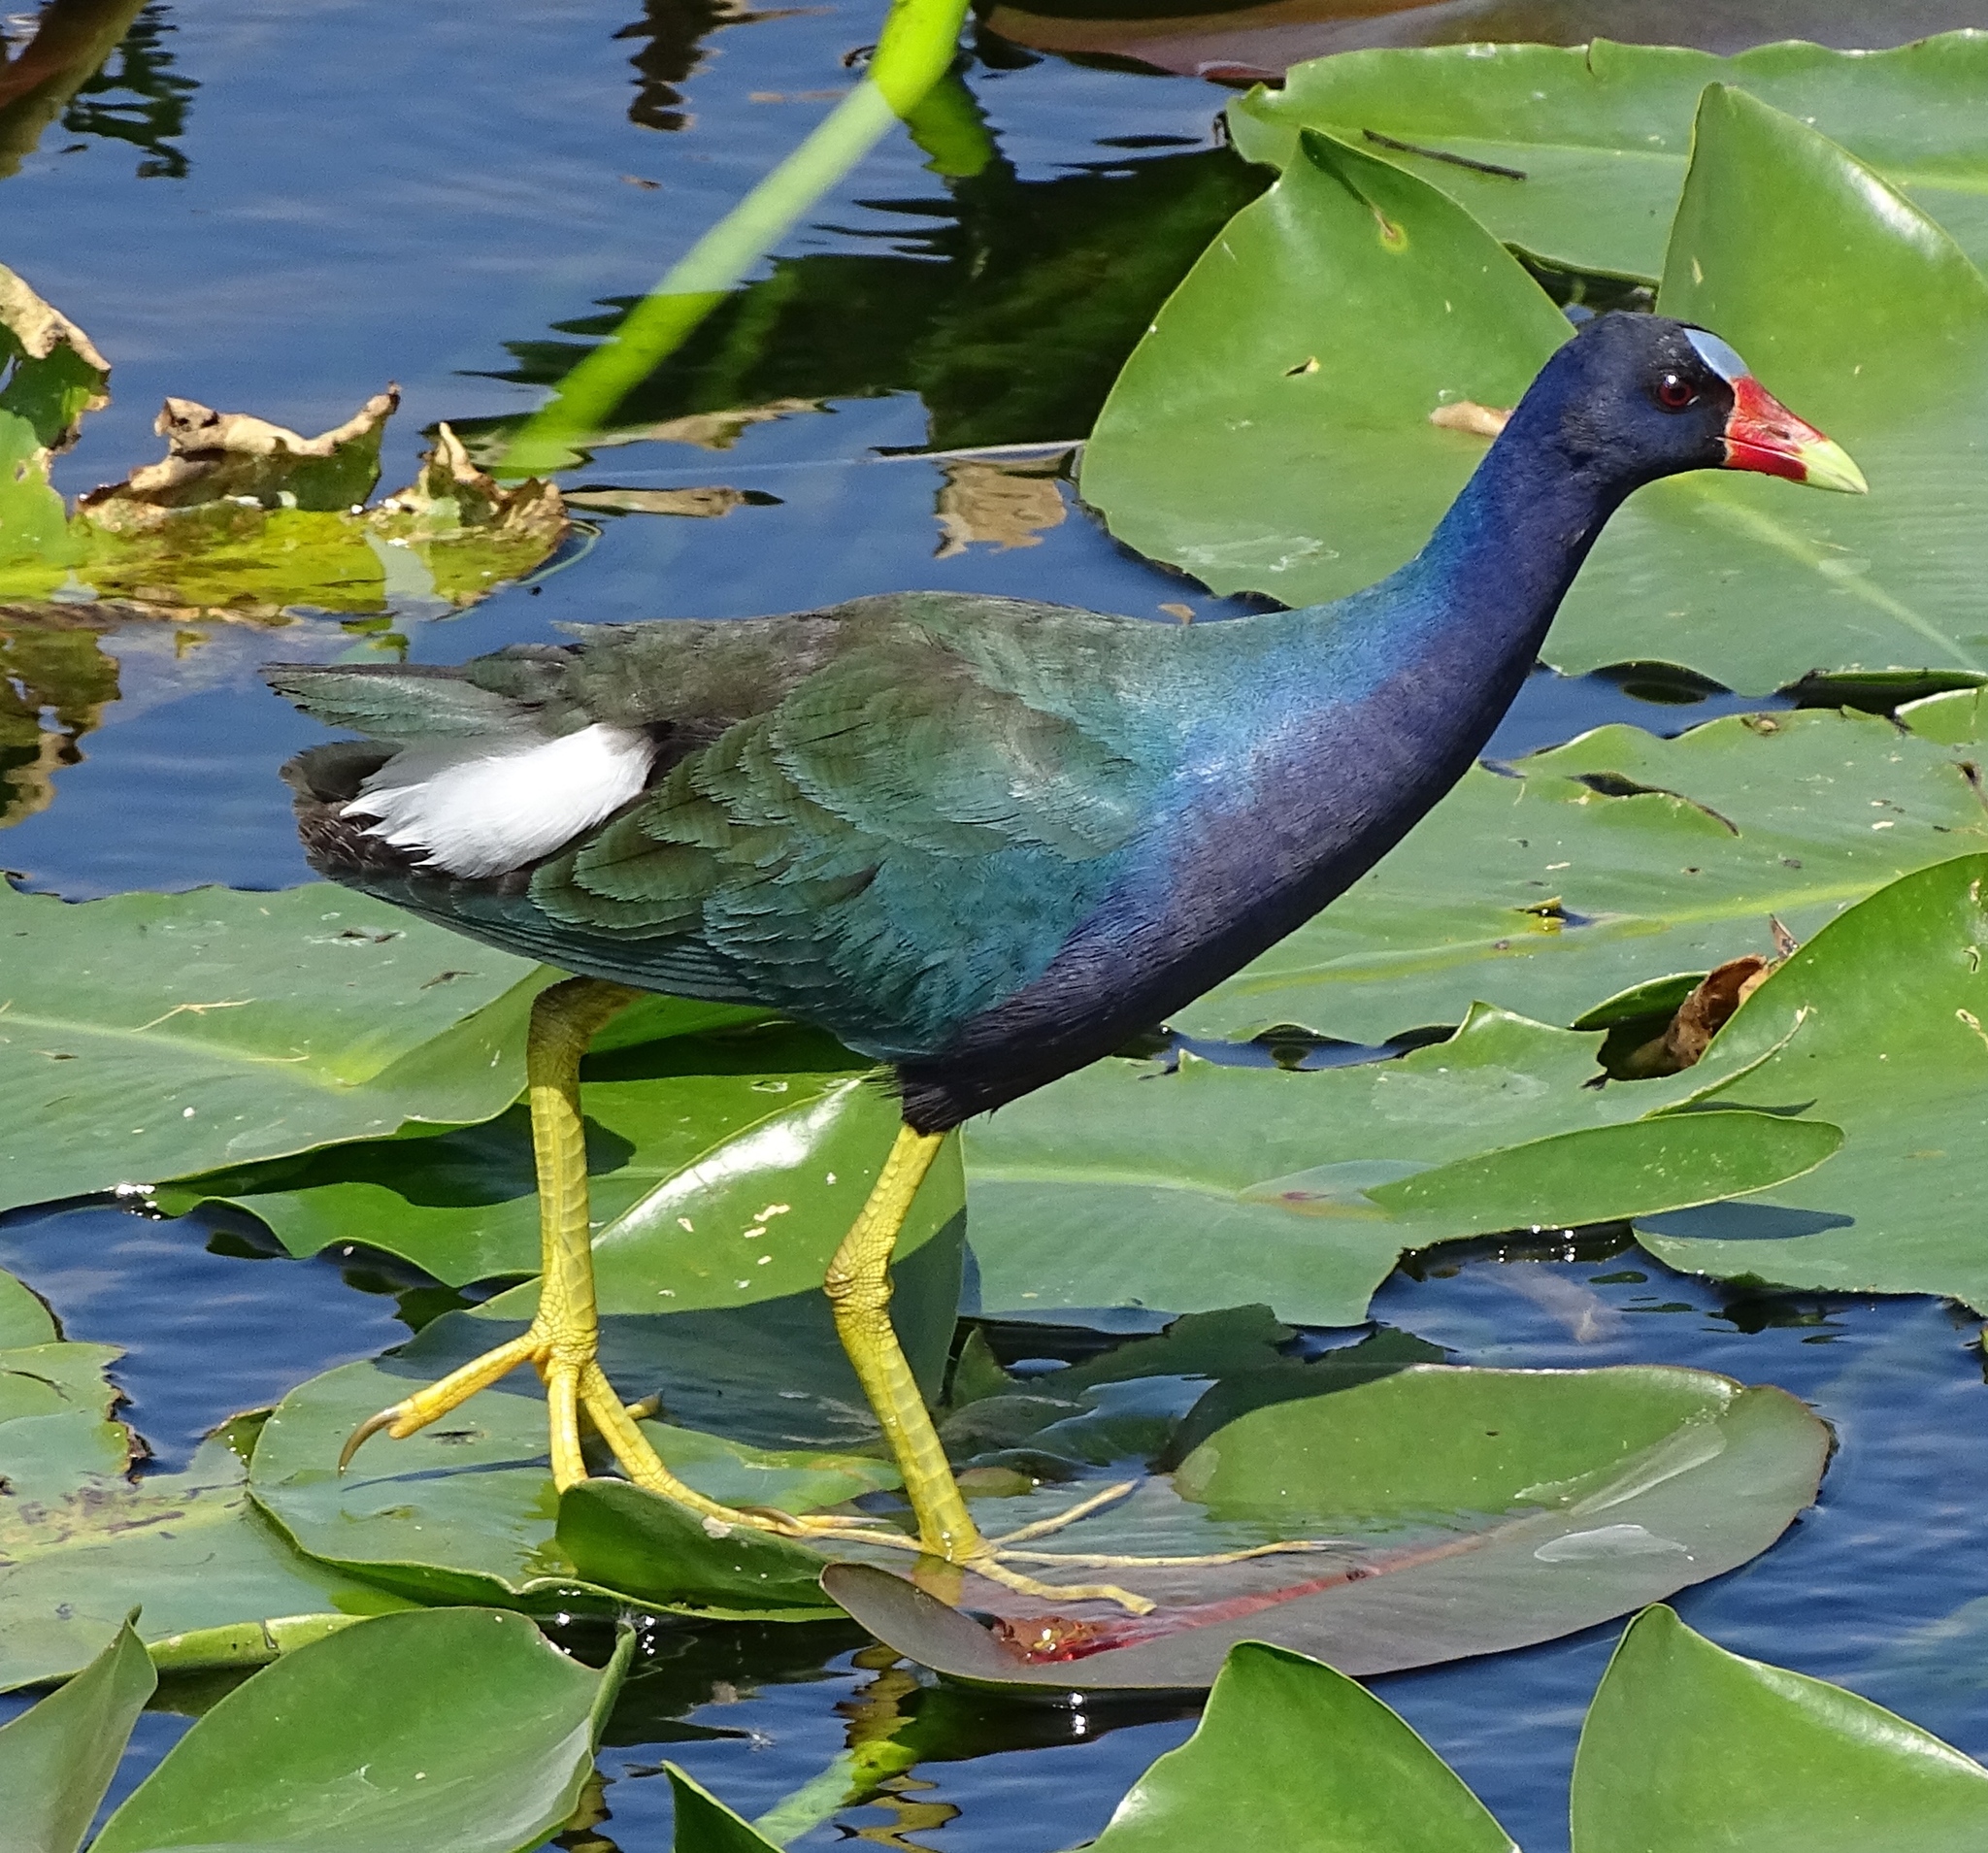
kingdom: Animalia
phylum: Chordata
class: Aves
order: Gruiformes
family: Rallidae
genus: Porphyrio
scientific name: Porphyrio martinica
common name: Purple gallinule
